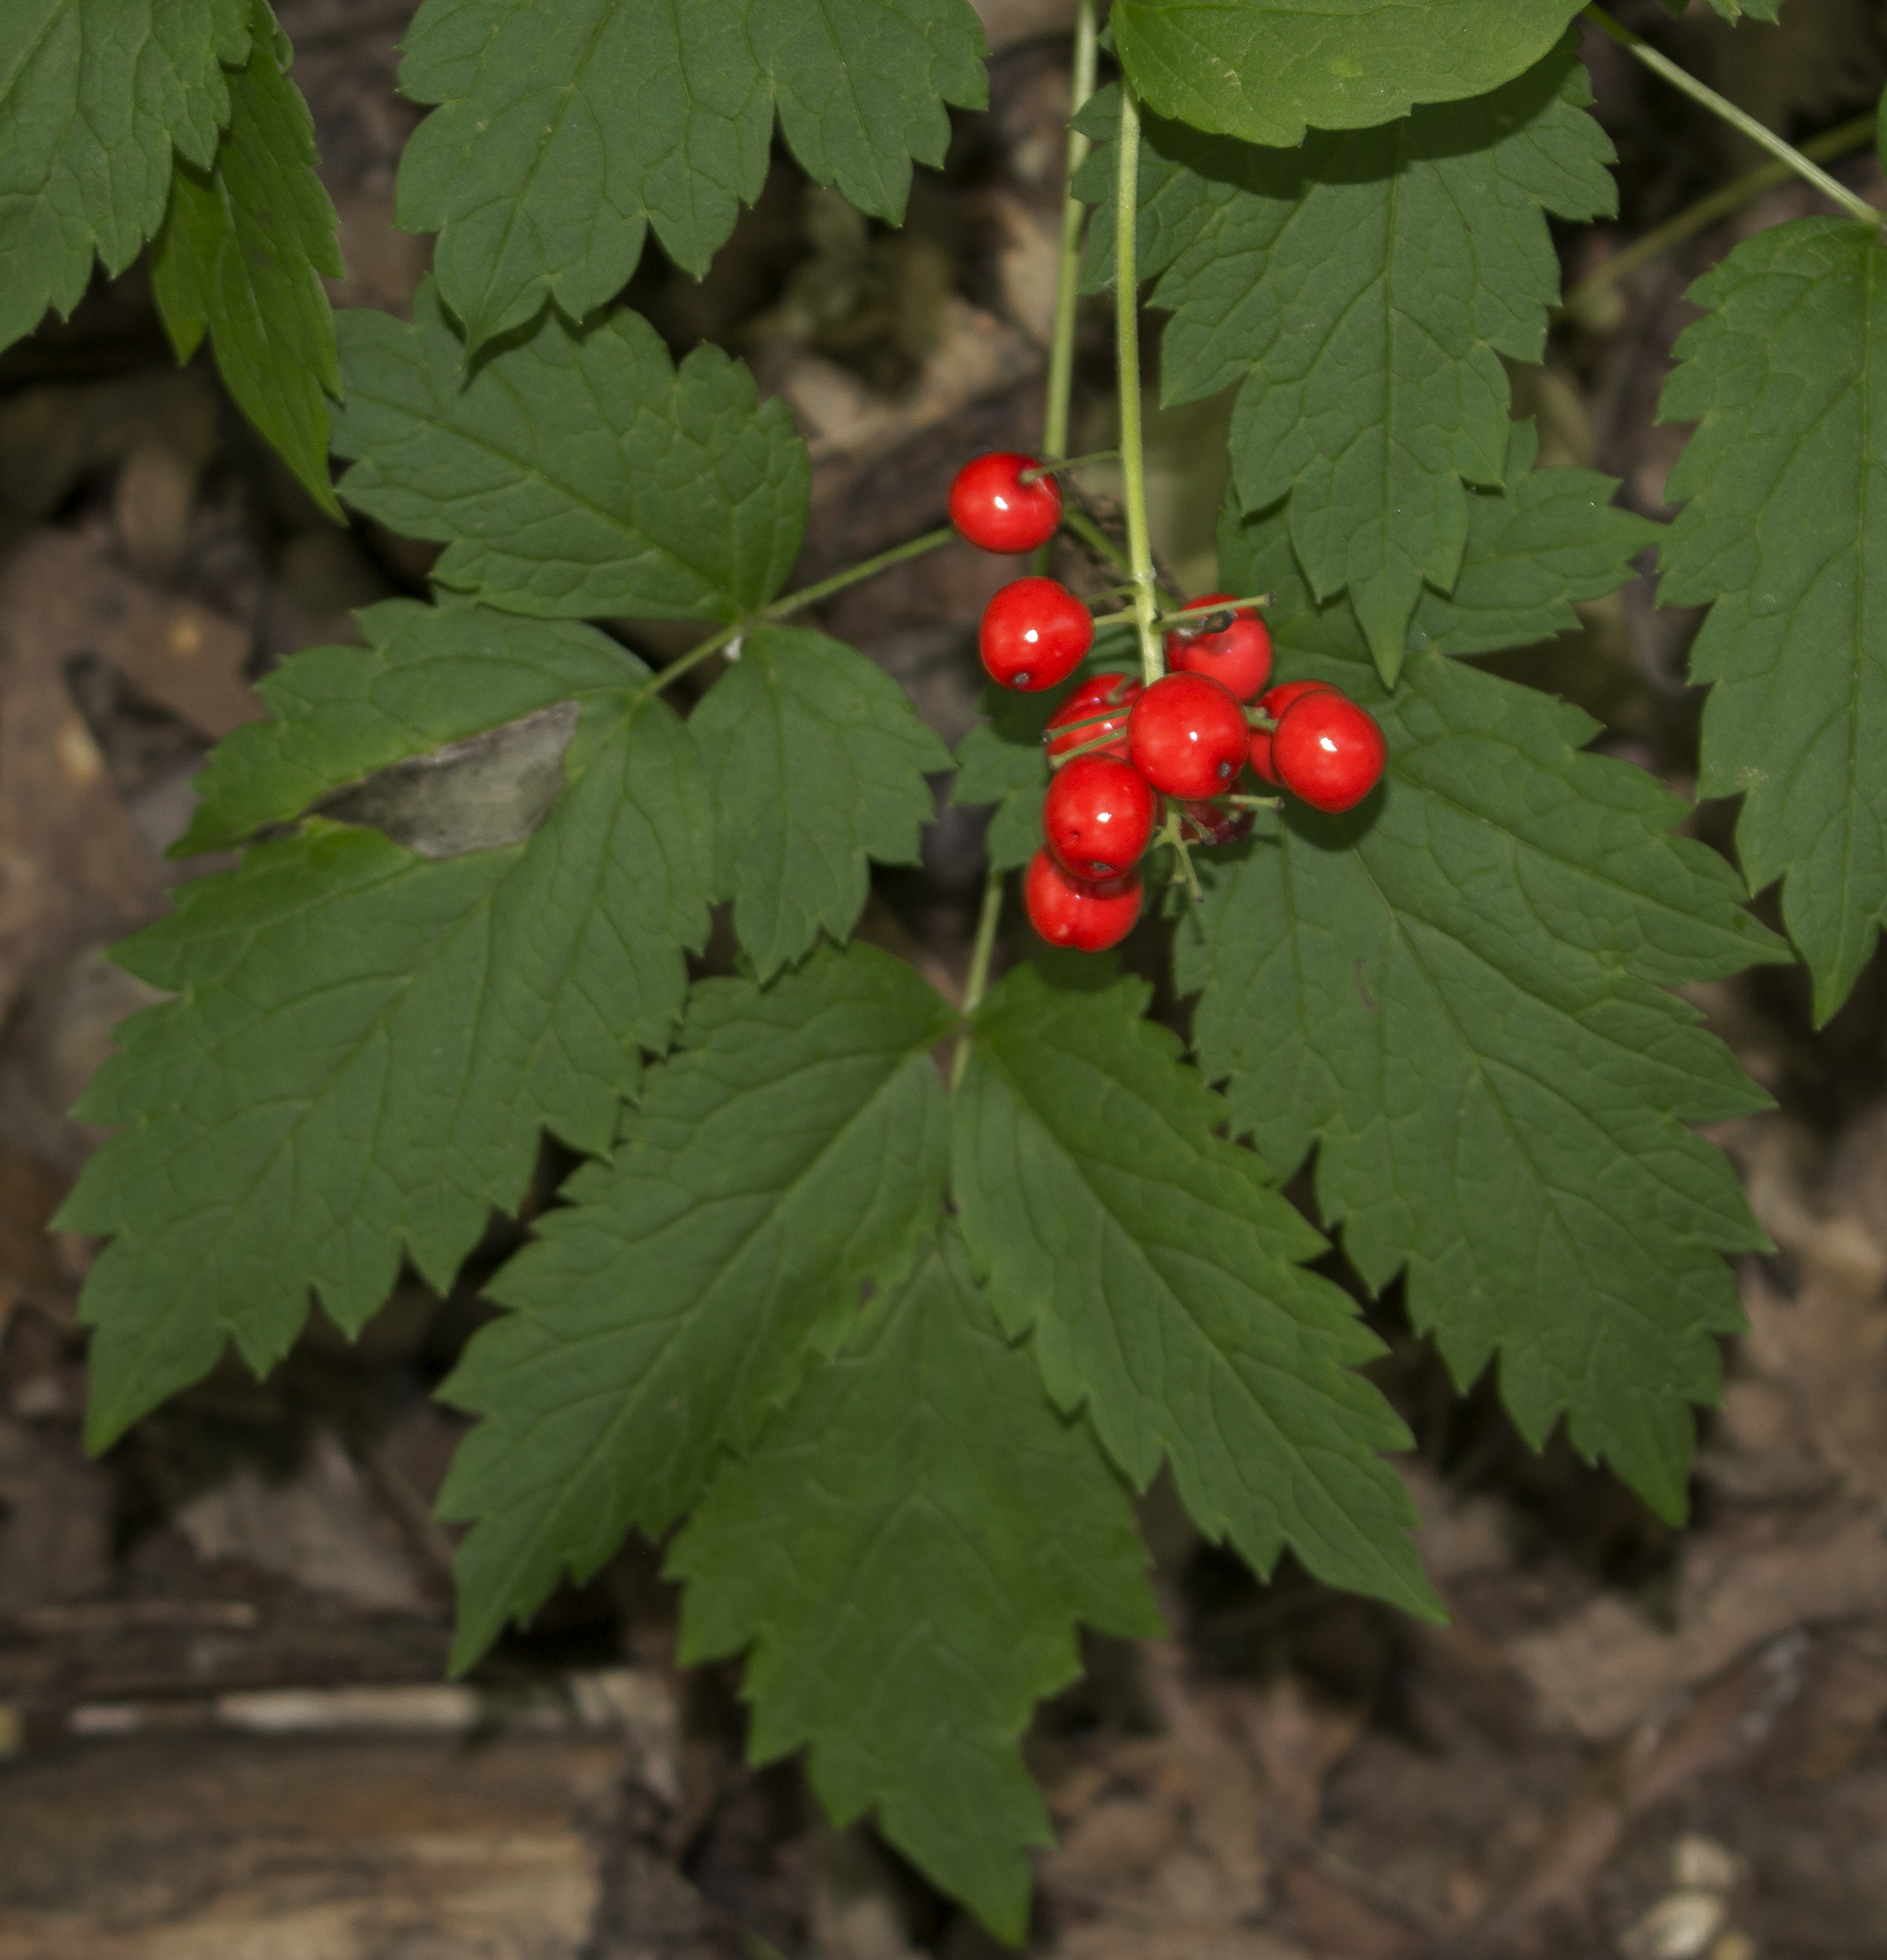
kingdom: Plantae
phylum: Tracheophyta
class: Magnoliopsida
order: Ranunculales
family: Ranunculaceae
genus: Actaea
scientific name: Actaea rubra
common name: Red baneberry
